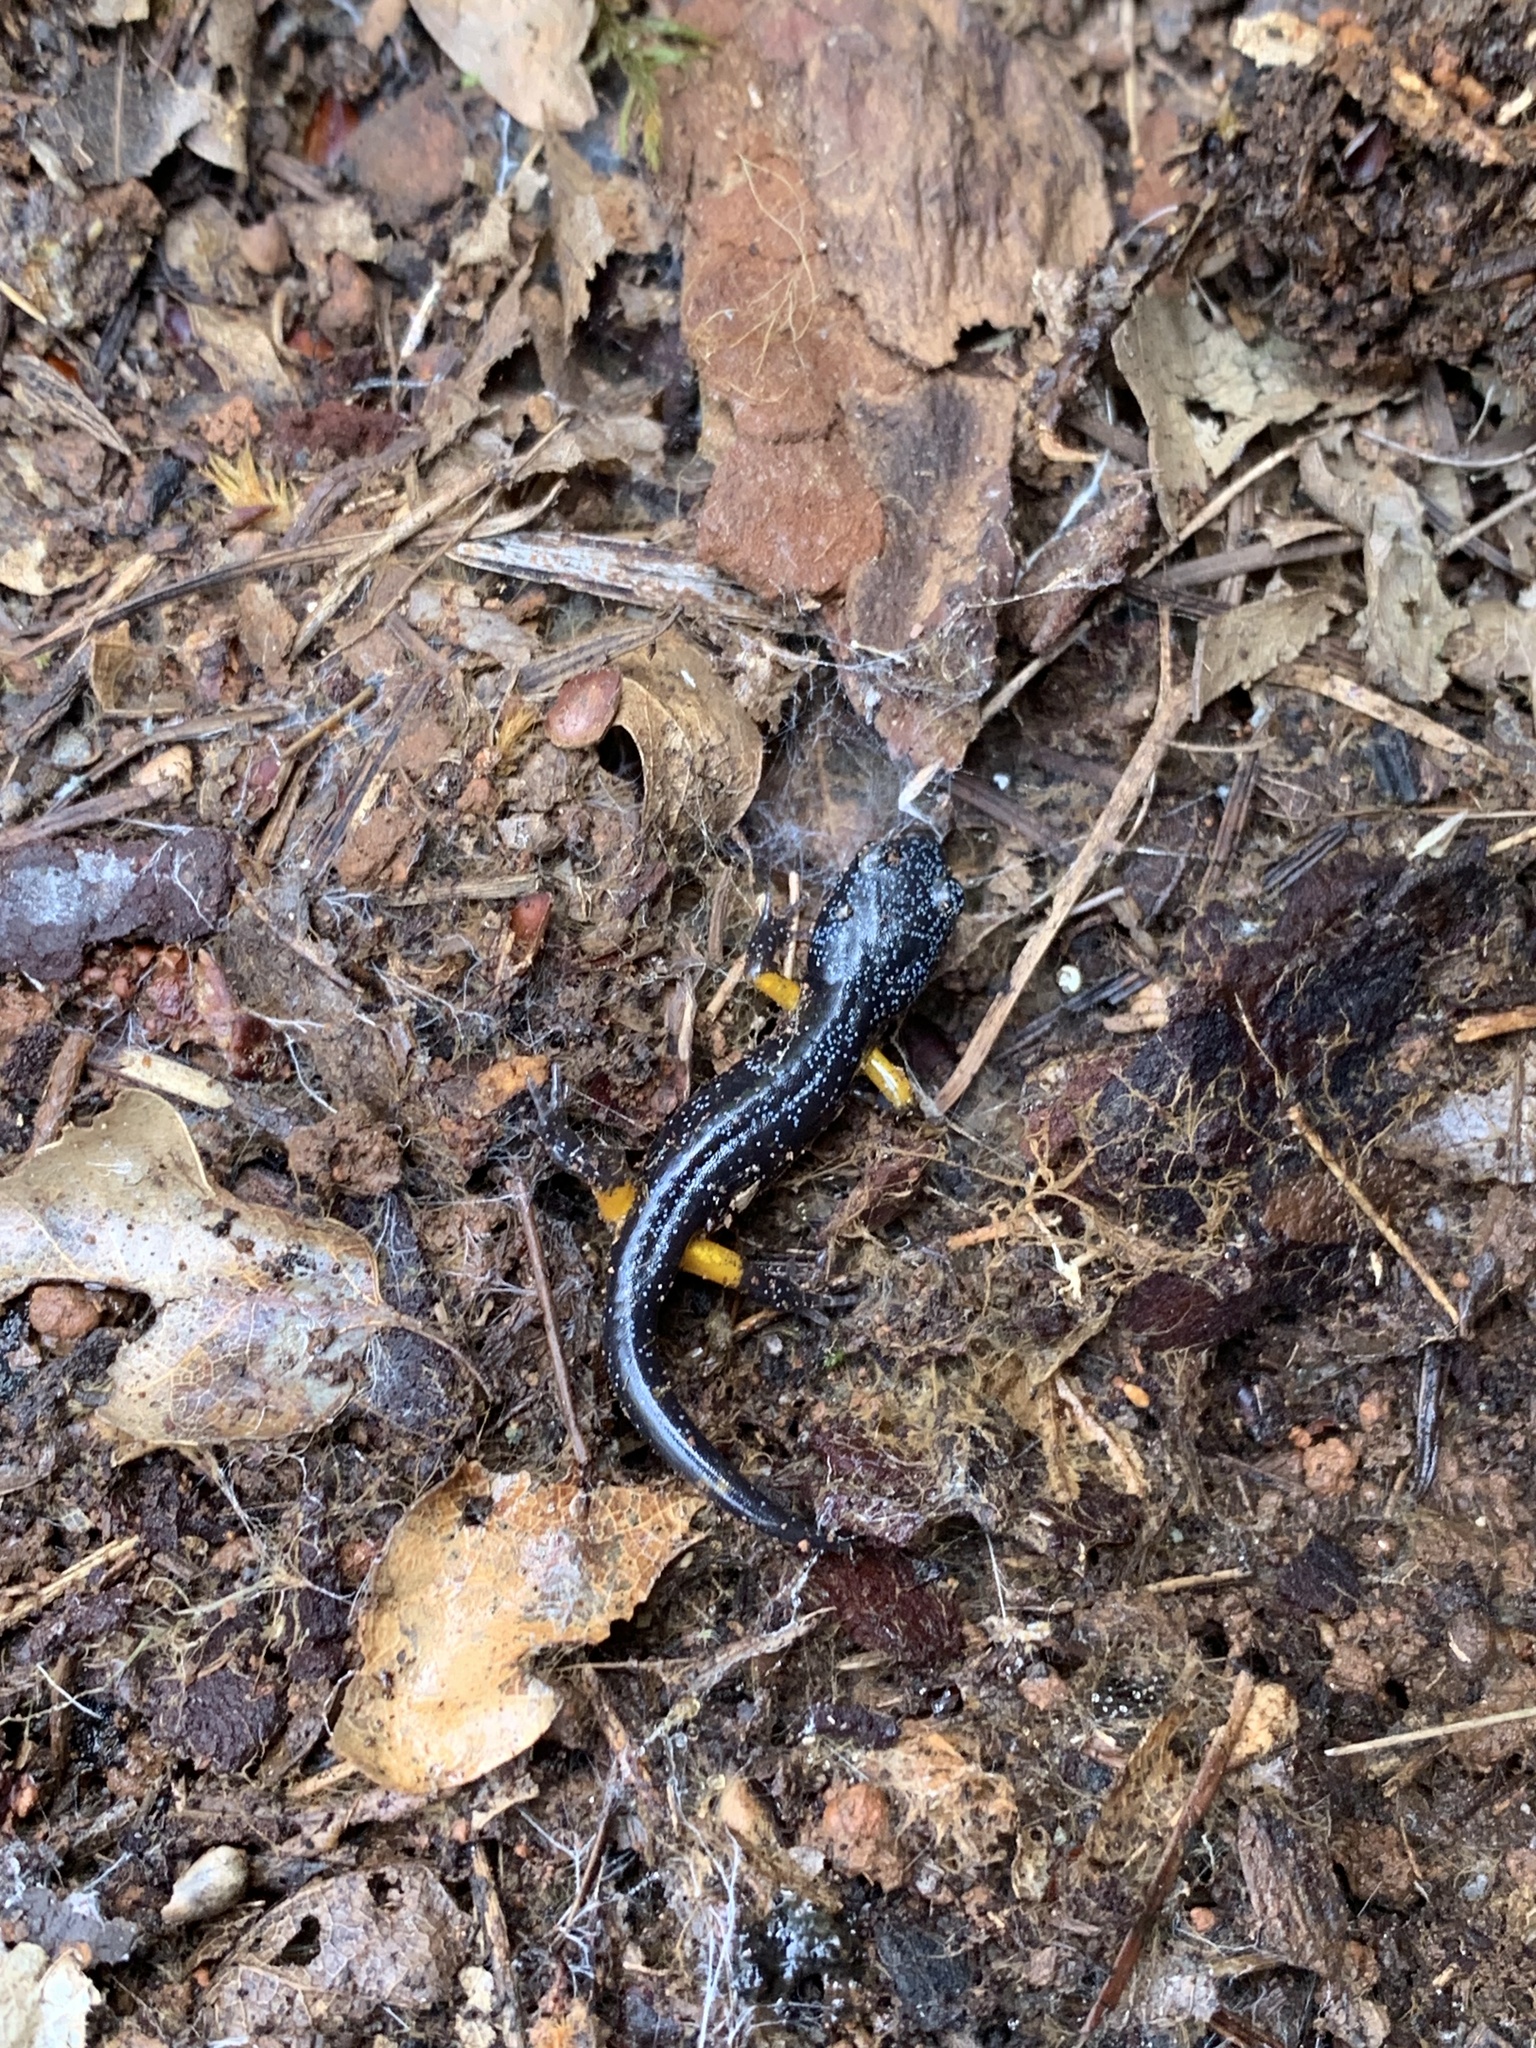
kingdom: Animalia
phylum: Chordata
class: Amphibia
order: Caudata
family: Plethodontidae
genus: Ensatina
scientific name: Ensatina eschscholtzii
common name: Ensatina
